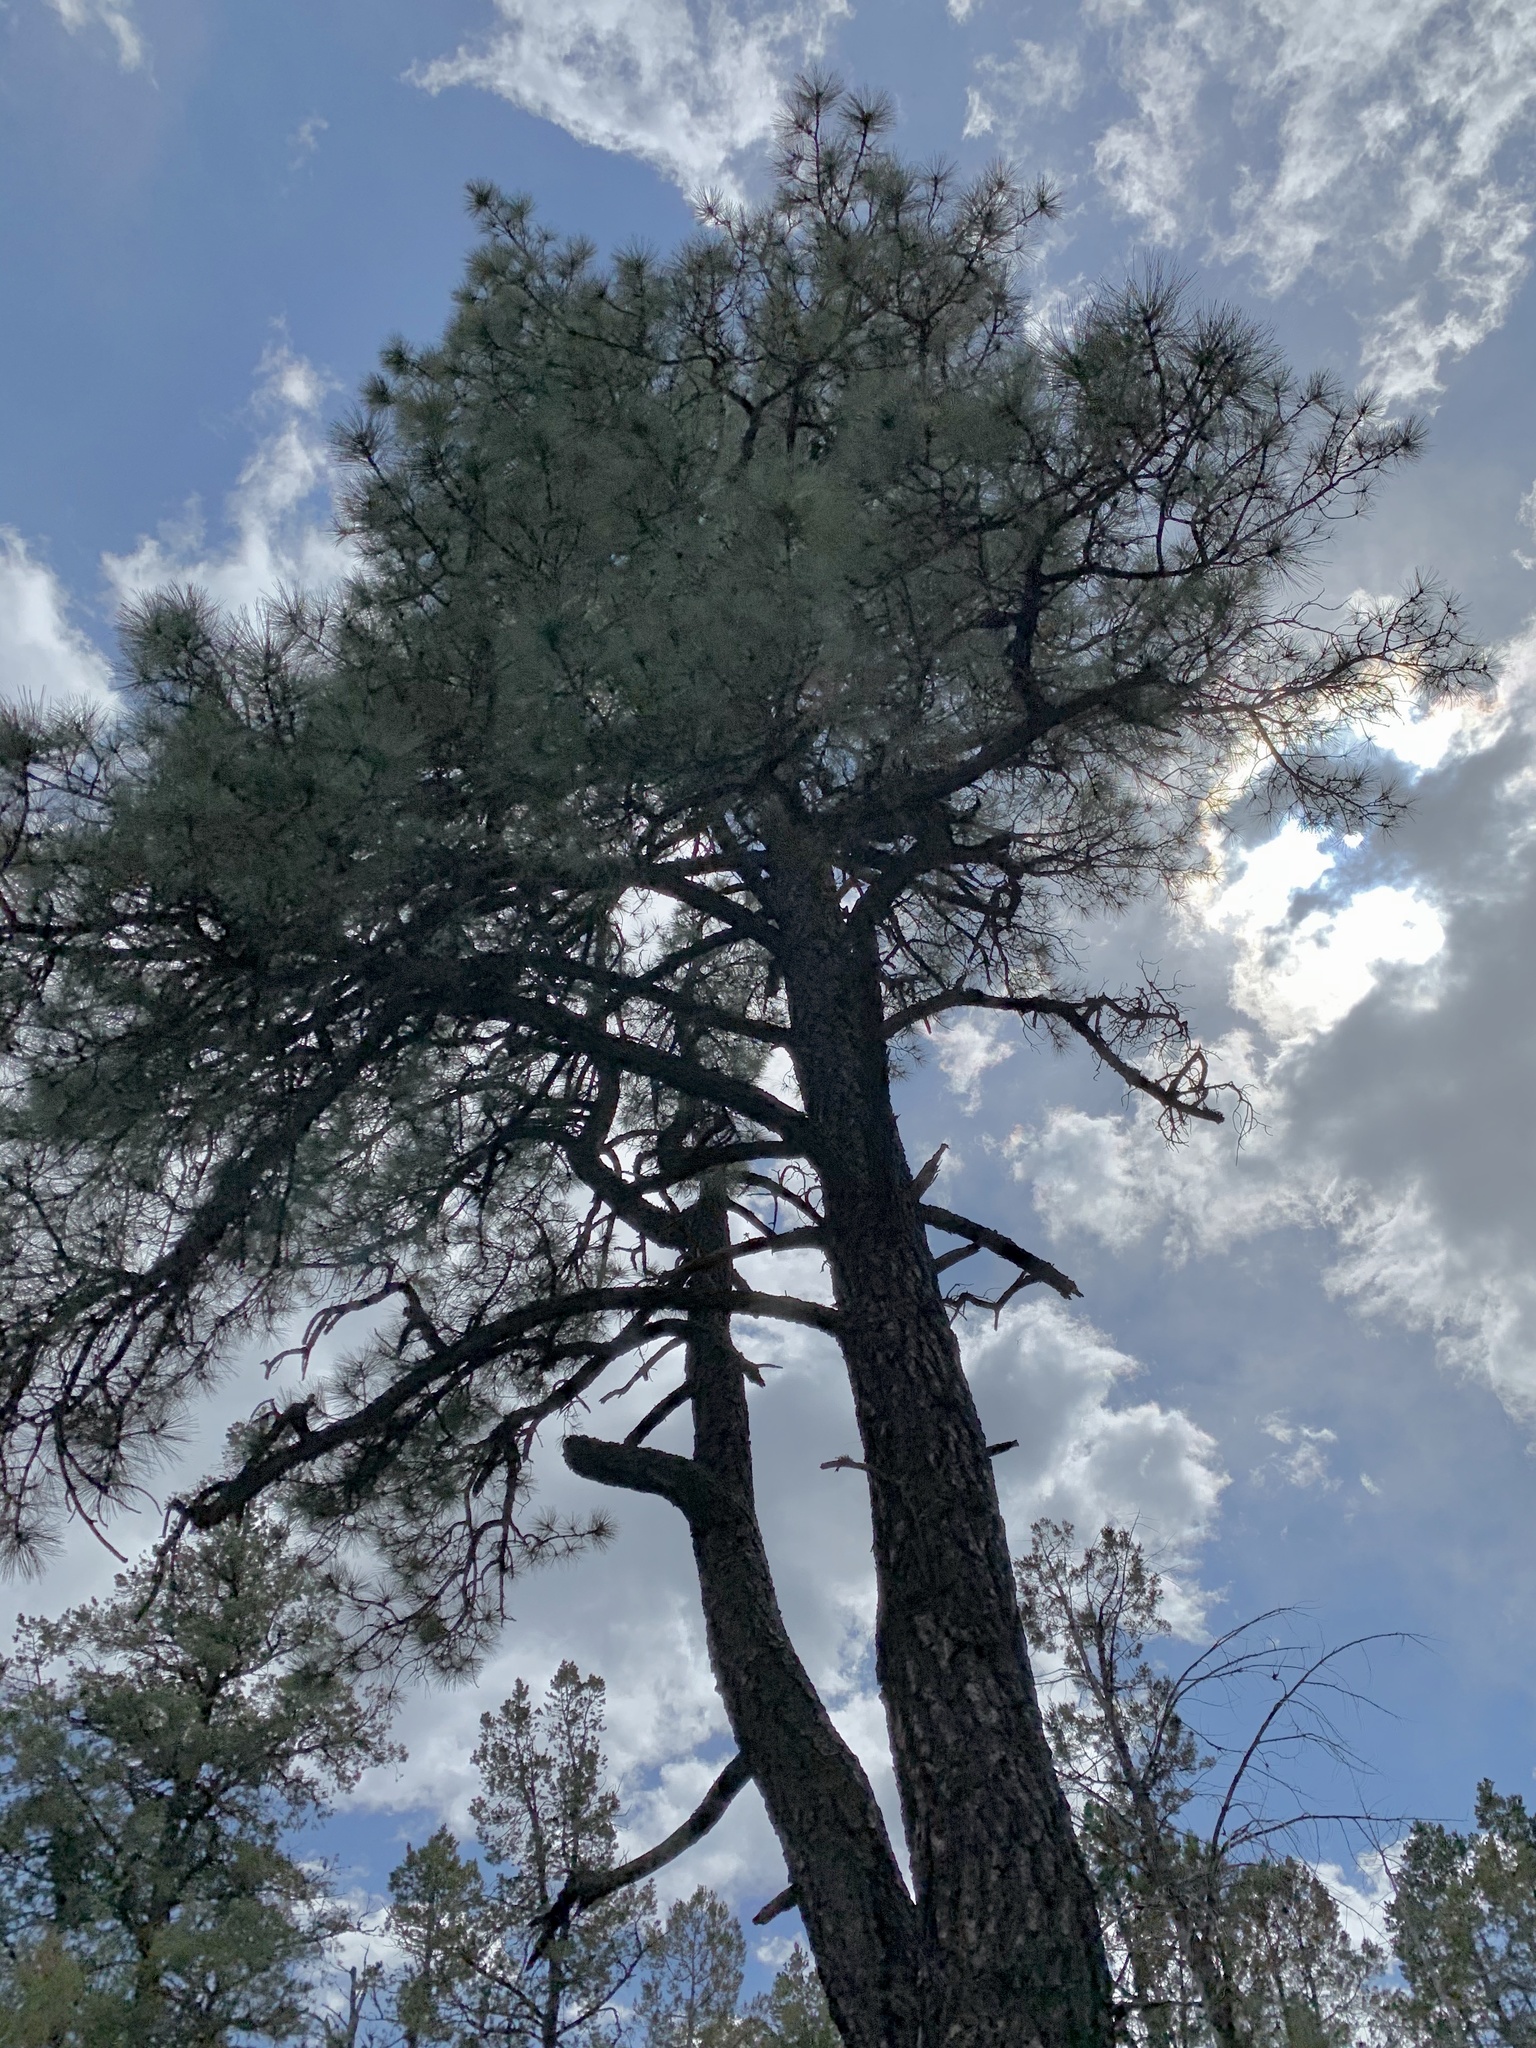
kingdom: Plantae
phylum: Tracheophyta
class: Pinopsida
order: Pinales
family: Pinaceae
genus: Pinus
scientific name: Pinus ponderosa
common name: Western yellow-pine
